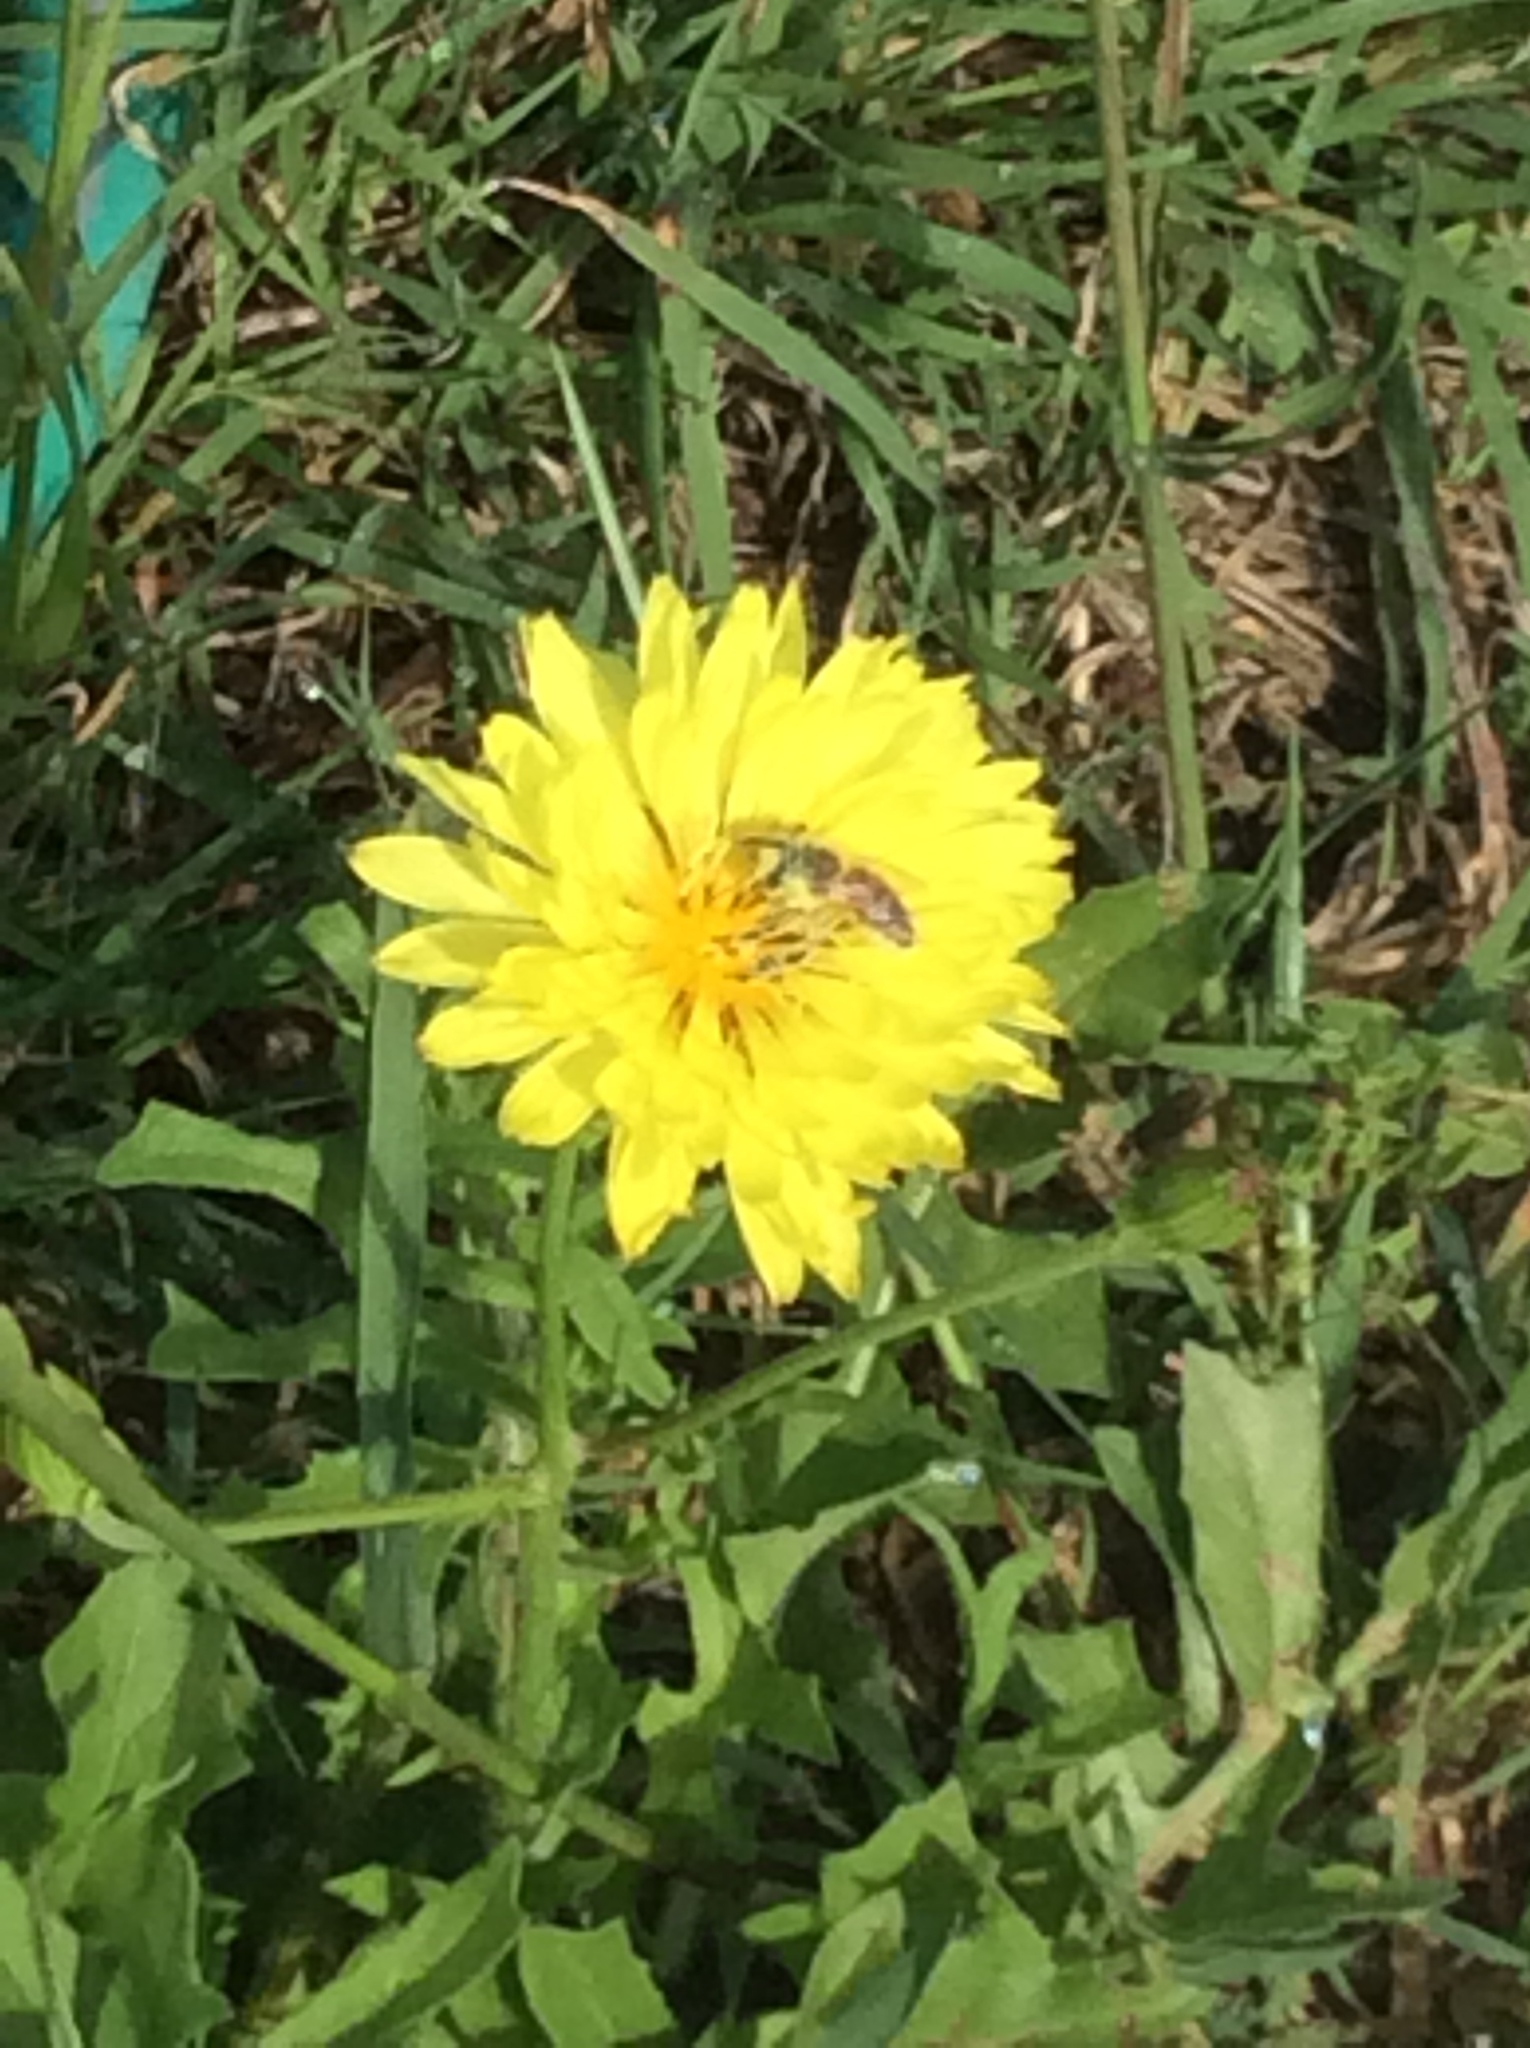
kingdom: Animalia
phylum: Arthropoda
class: Insecta
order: Hymenoptera
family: Apidae
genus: Apis
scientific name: Apis mellifera
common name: Honey bee
